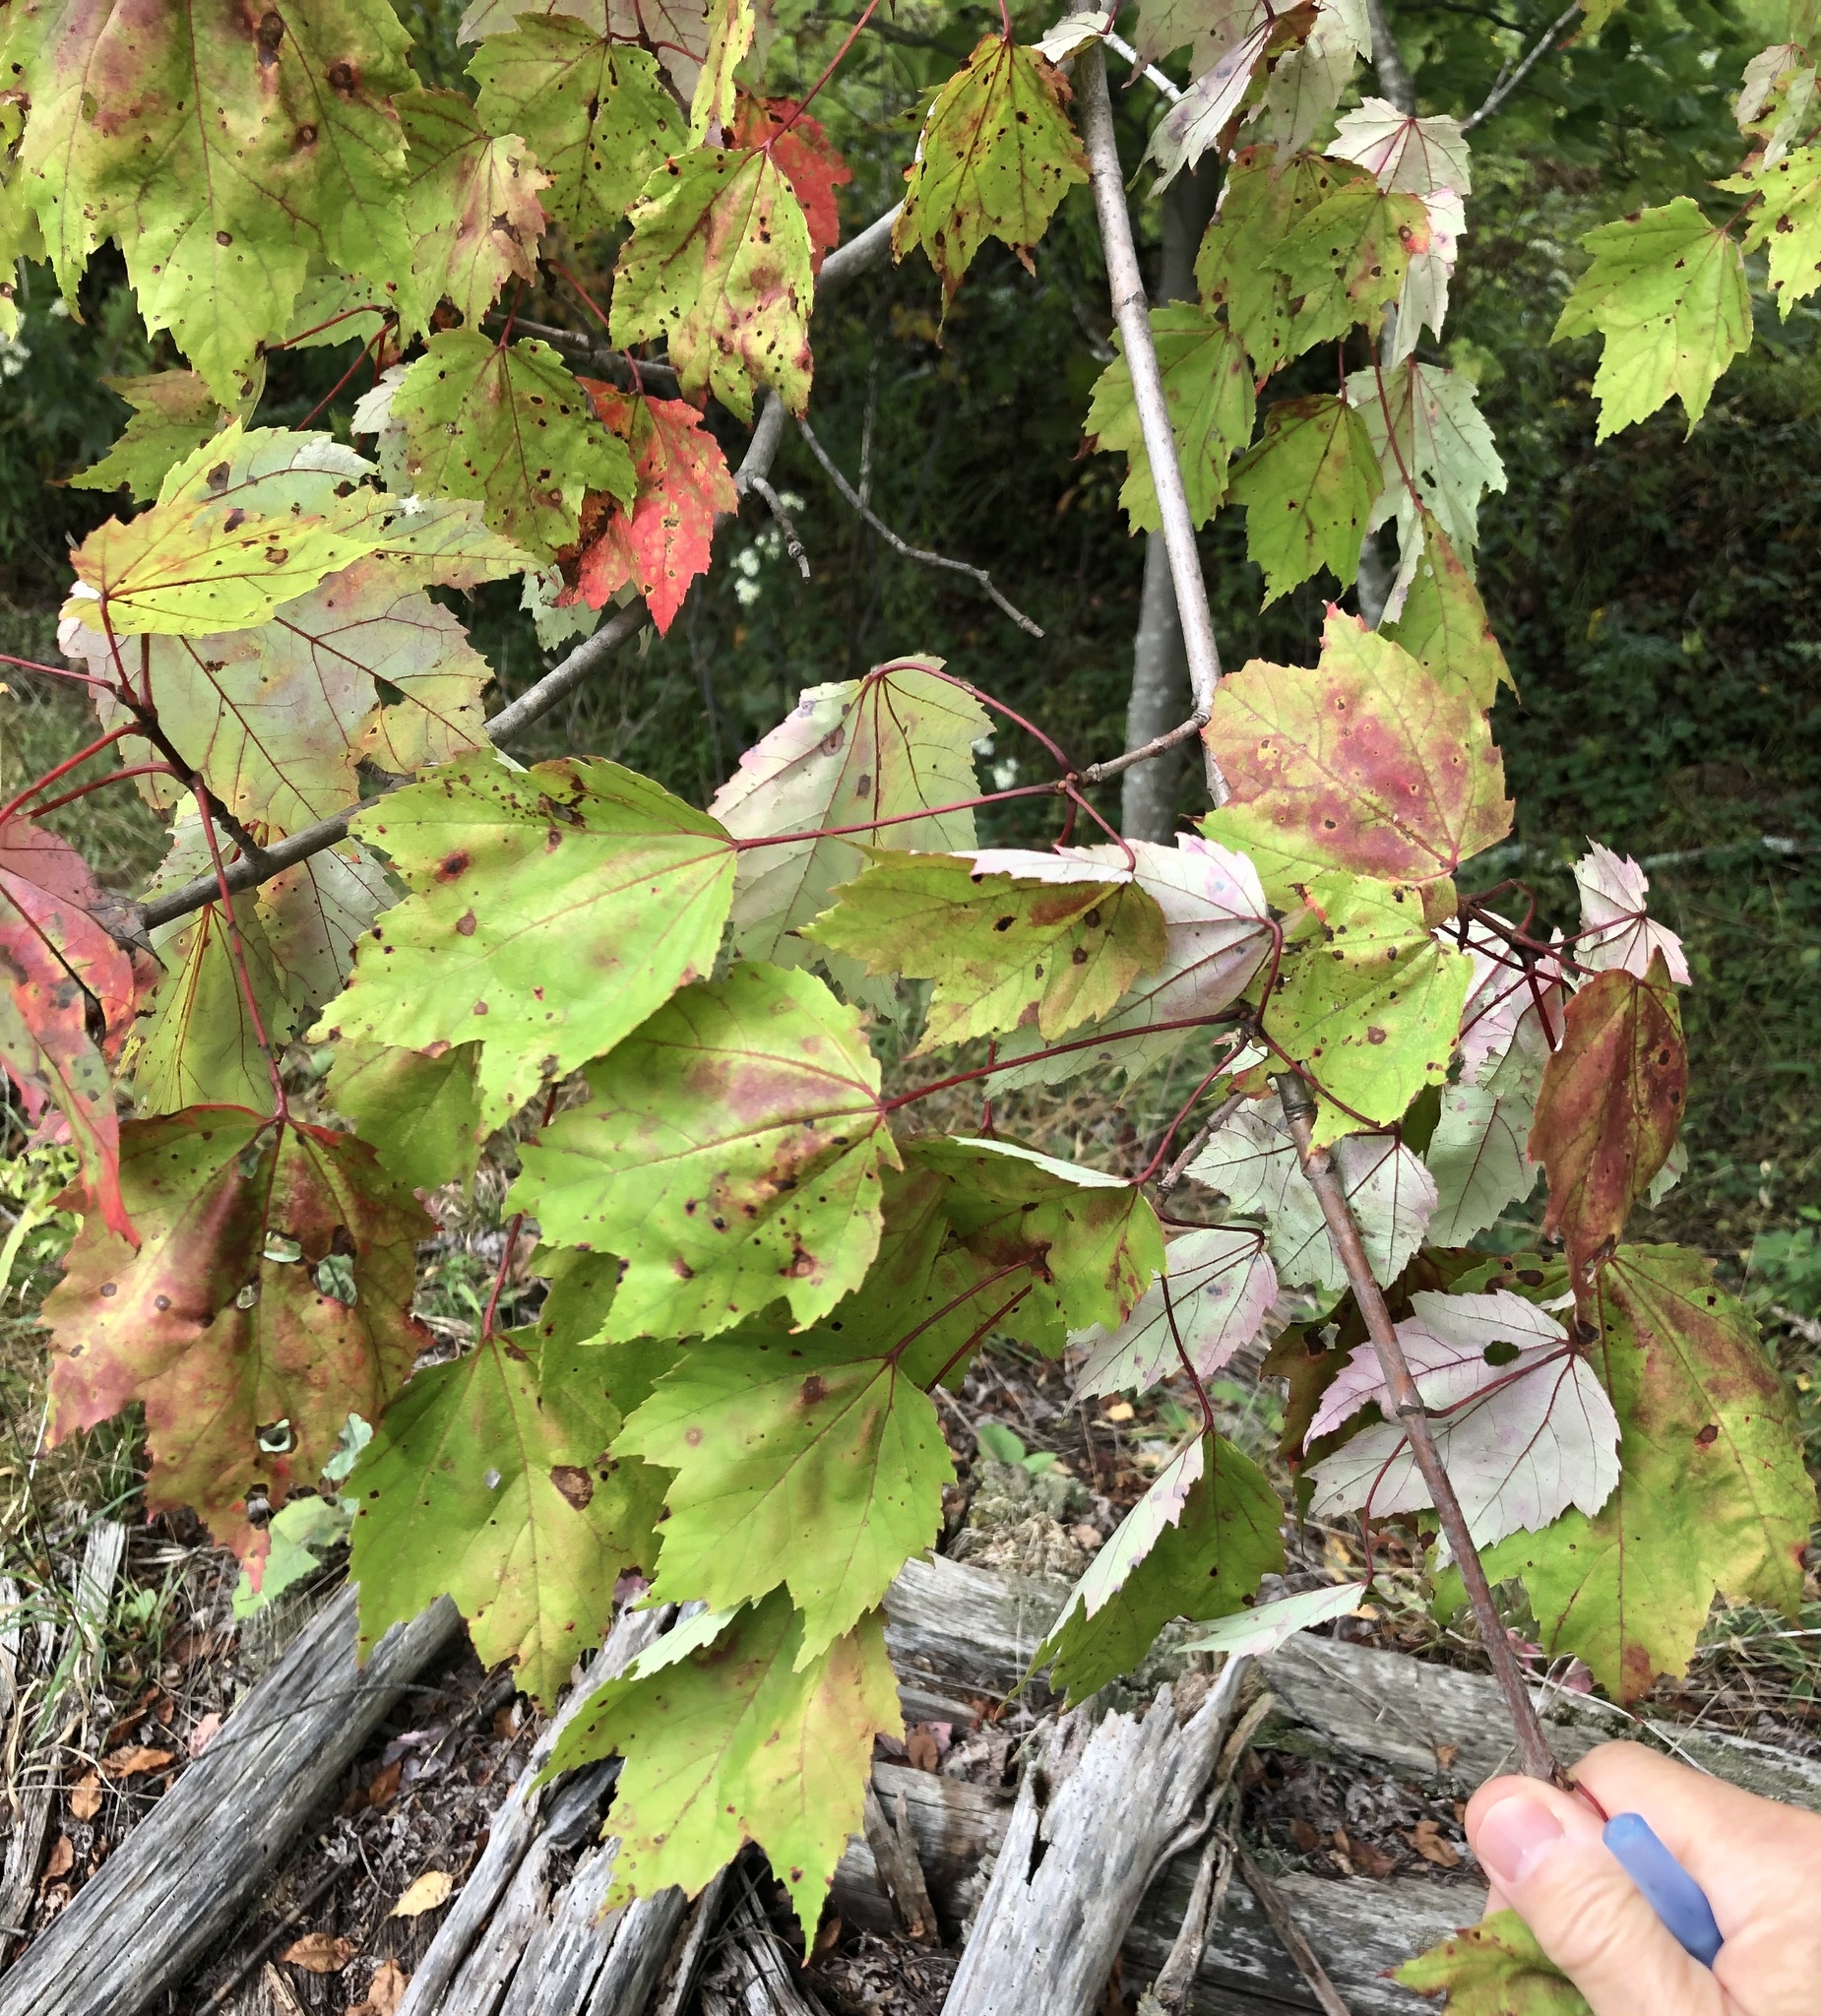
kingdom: Plantae
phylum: Tracheophyta
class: Magnoliopsida
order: Sapindales
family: Sapindaceae
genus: Acer
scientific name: Acer rubrum
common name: Red maple
